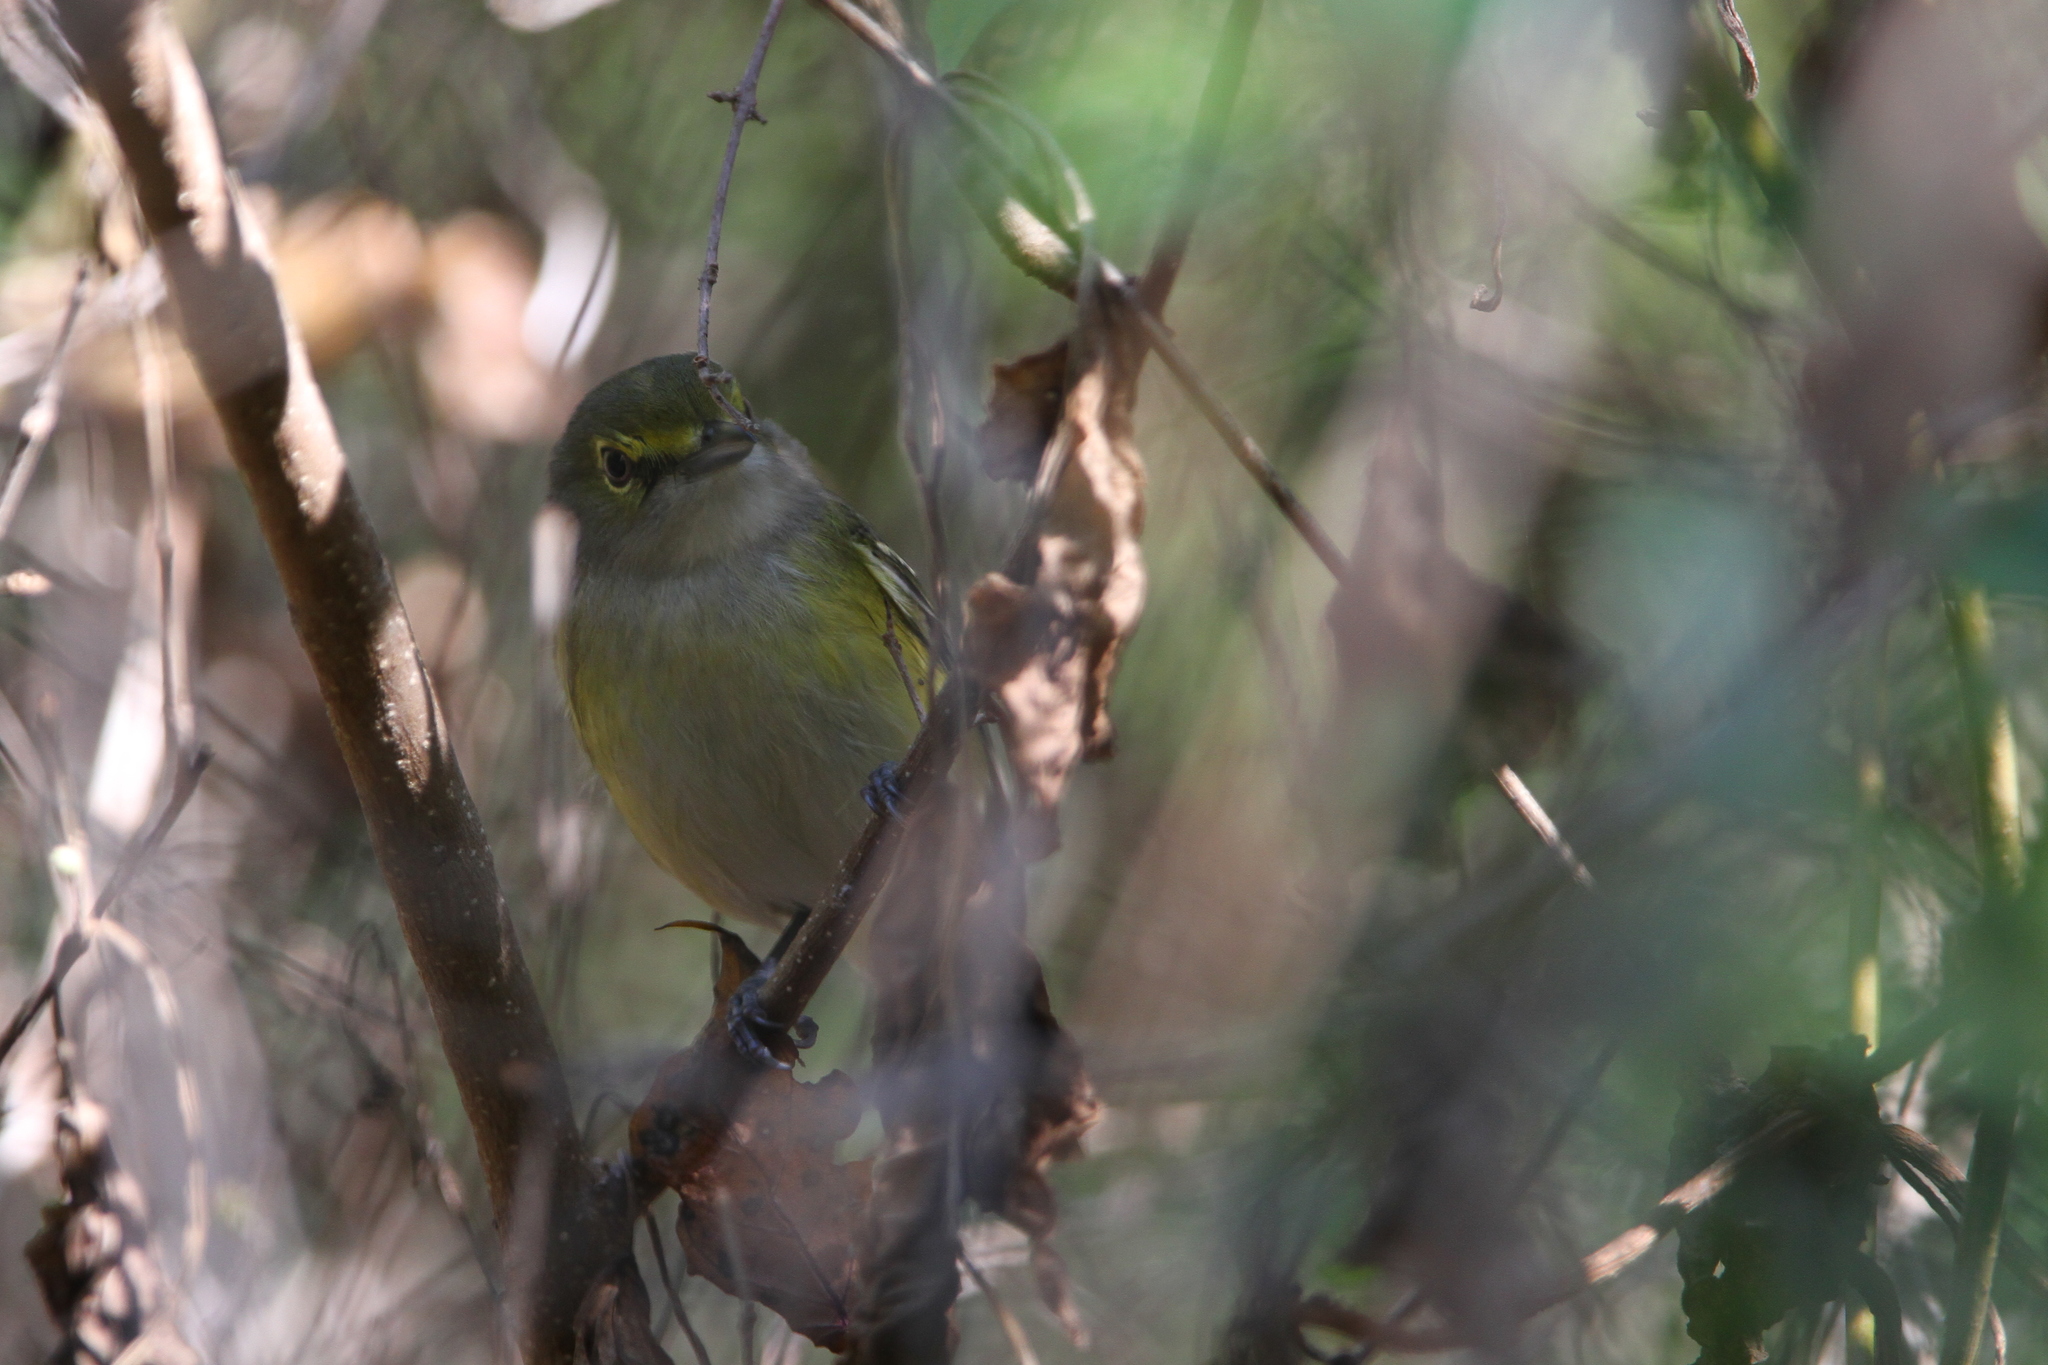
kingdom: Animalia
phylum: Chordata
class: Aves
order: Passeriformes
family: Vireonidae
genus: Vireo
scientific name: Vireo griseus
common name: White-eyed vireo
